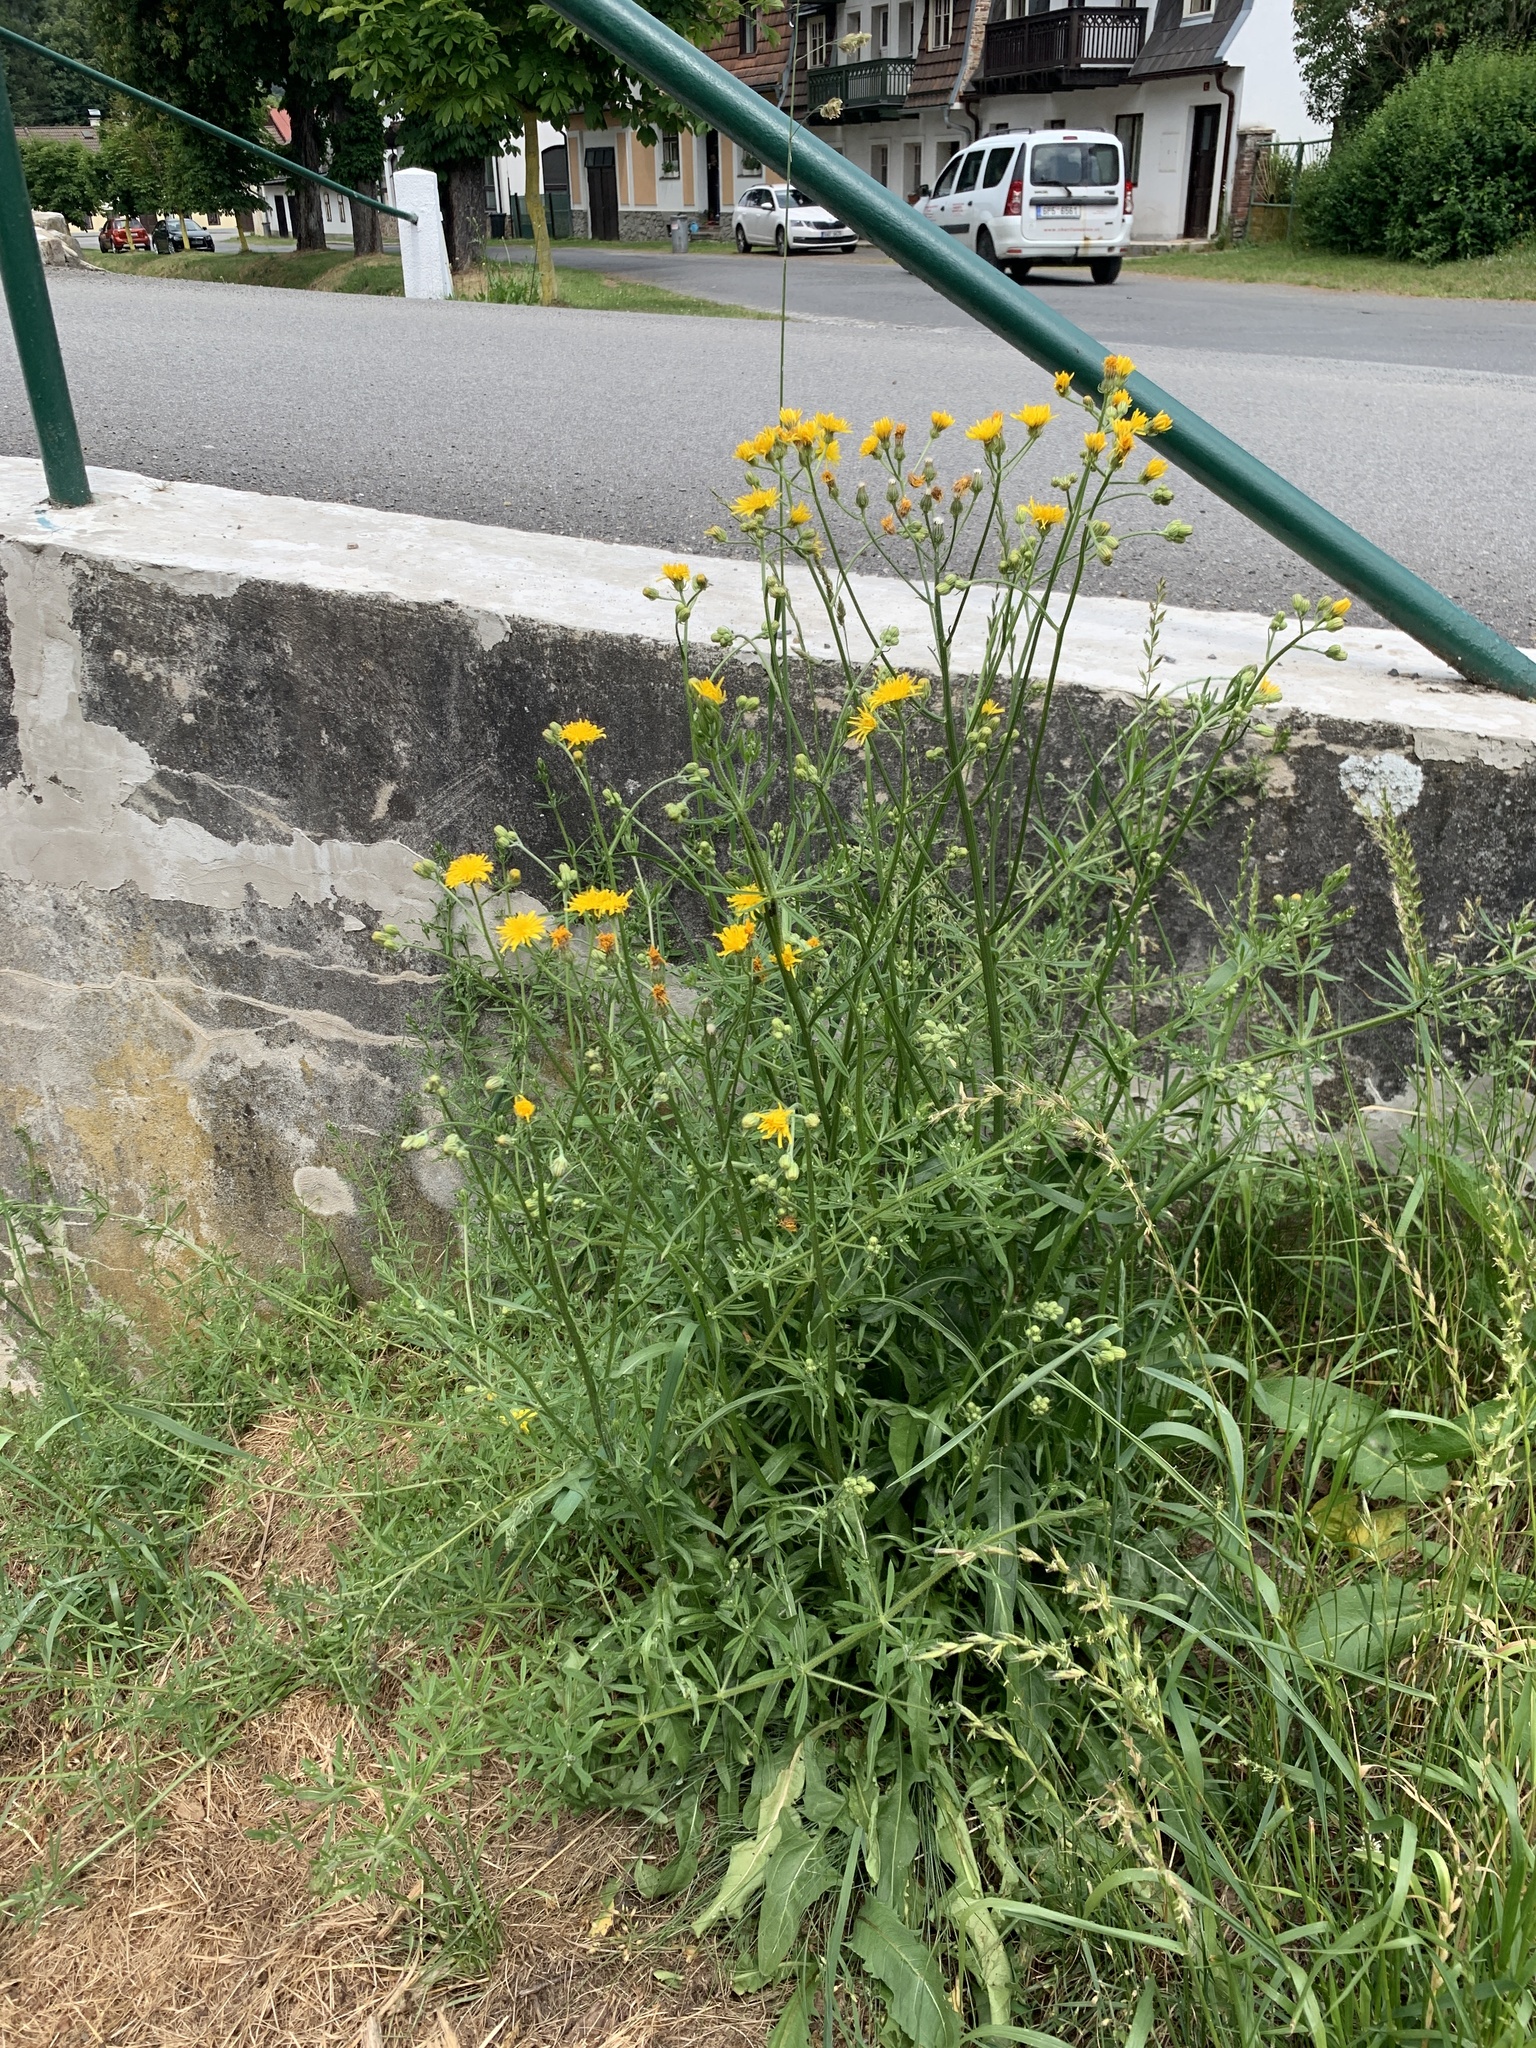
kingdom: Plantae
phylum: Tracheophyta
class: Magnoliopsida
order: Asterales
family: Asteraceae
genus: Crepis
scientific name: Crepis biennis
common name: Rough hawk's-beard
